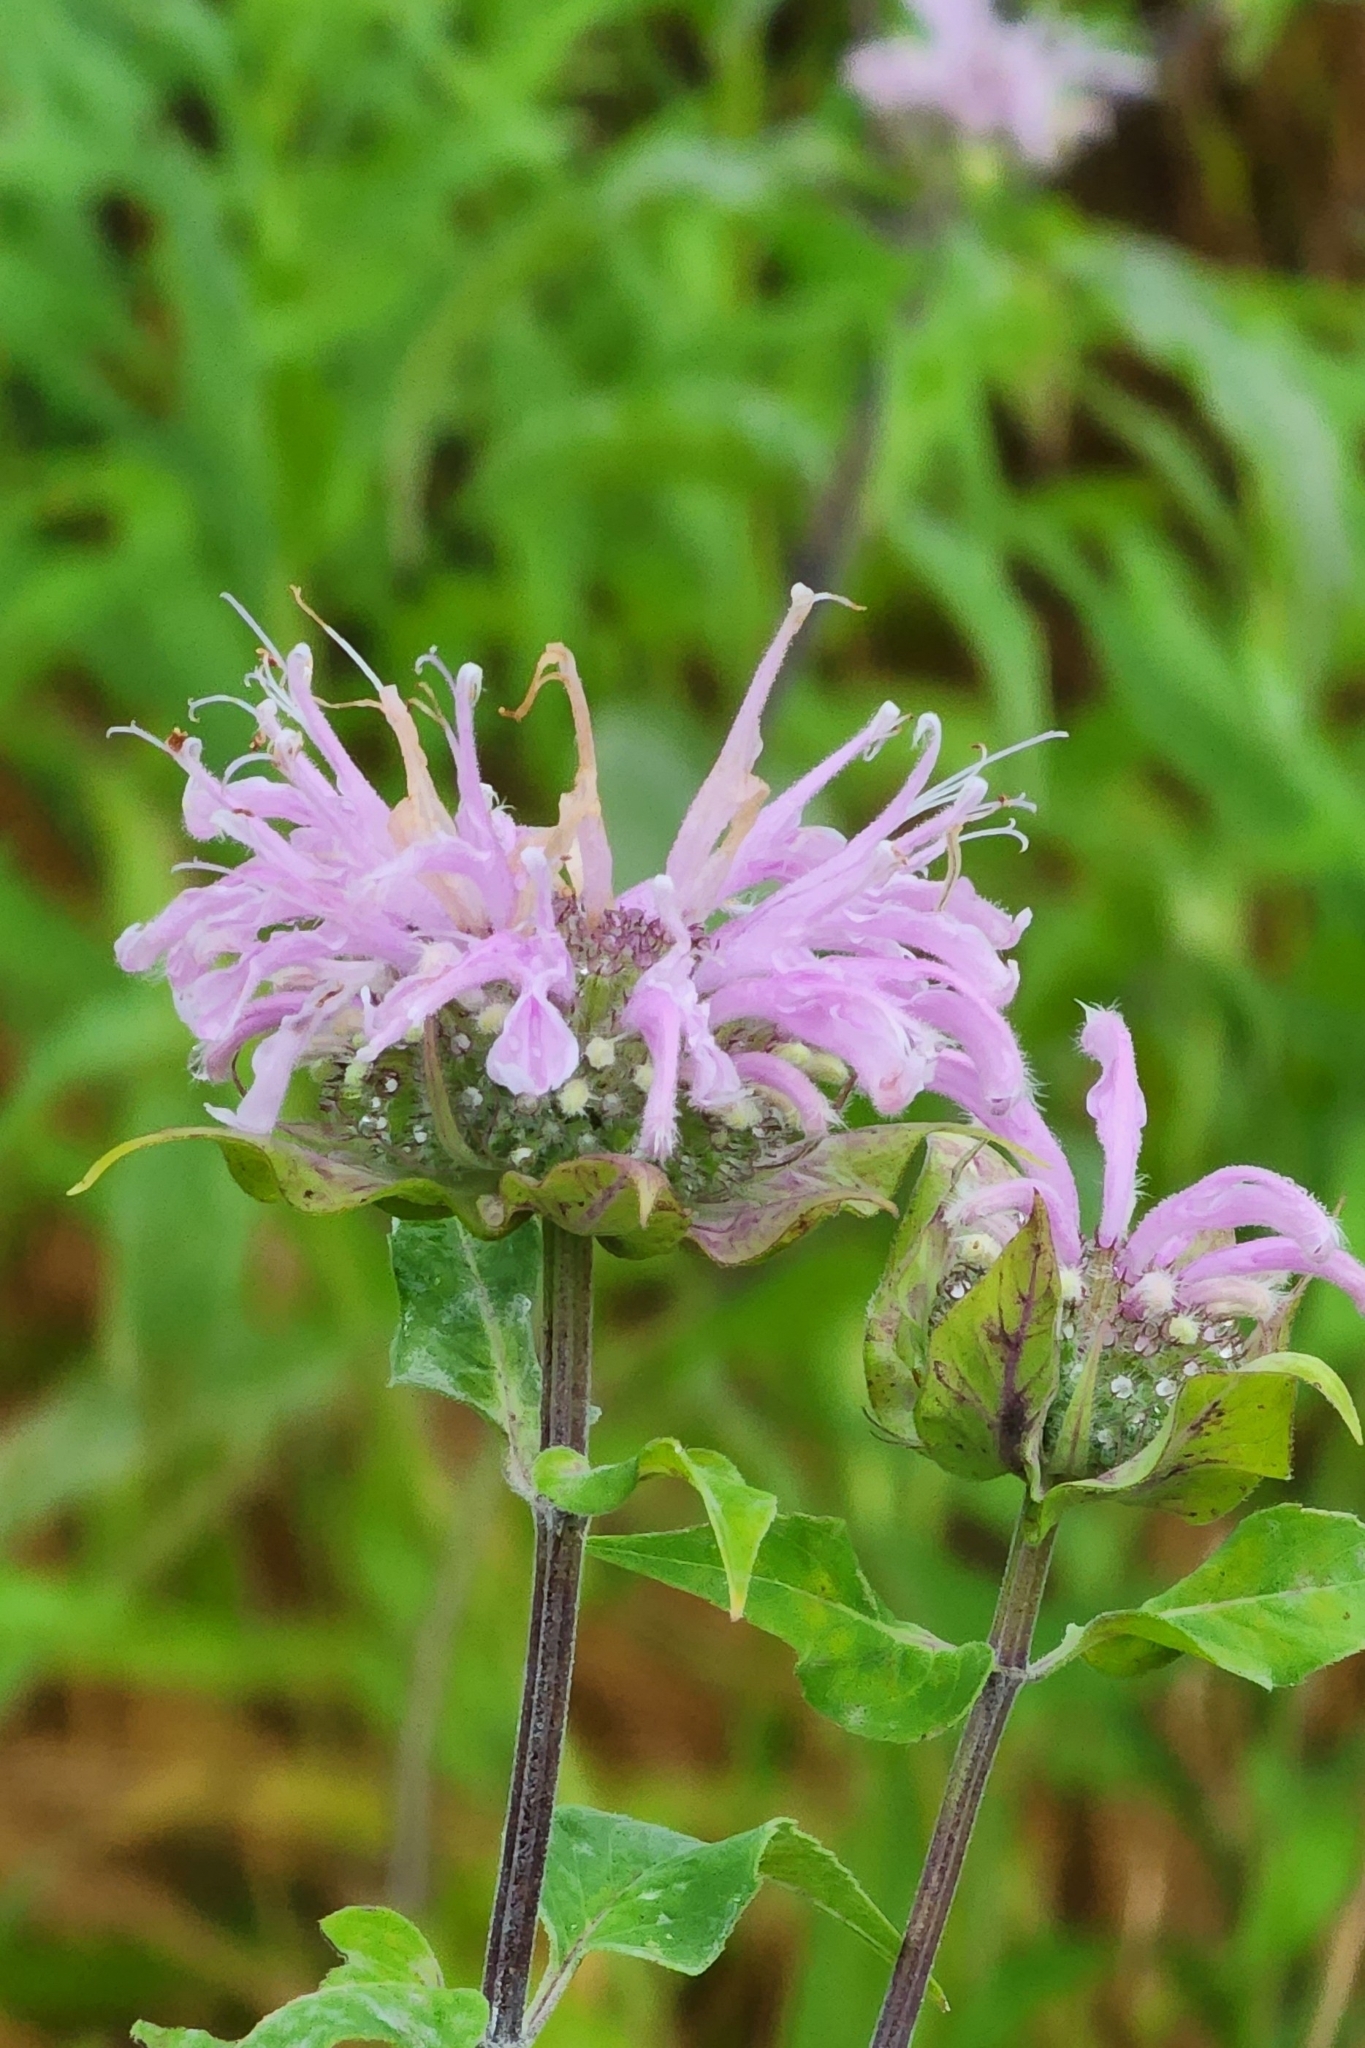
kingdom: Plantae
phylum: Tracheophyta
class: Magnoliopsida
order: Lamiales
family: Lamiaceae
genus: Monarda
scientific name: Monarda fistulosa
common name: Purple beebalm
